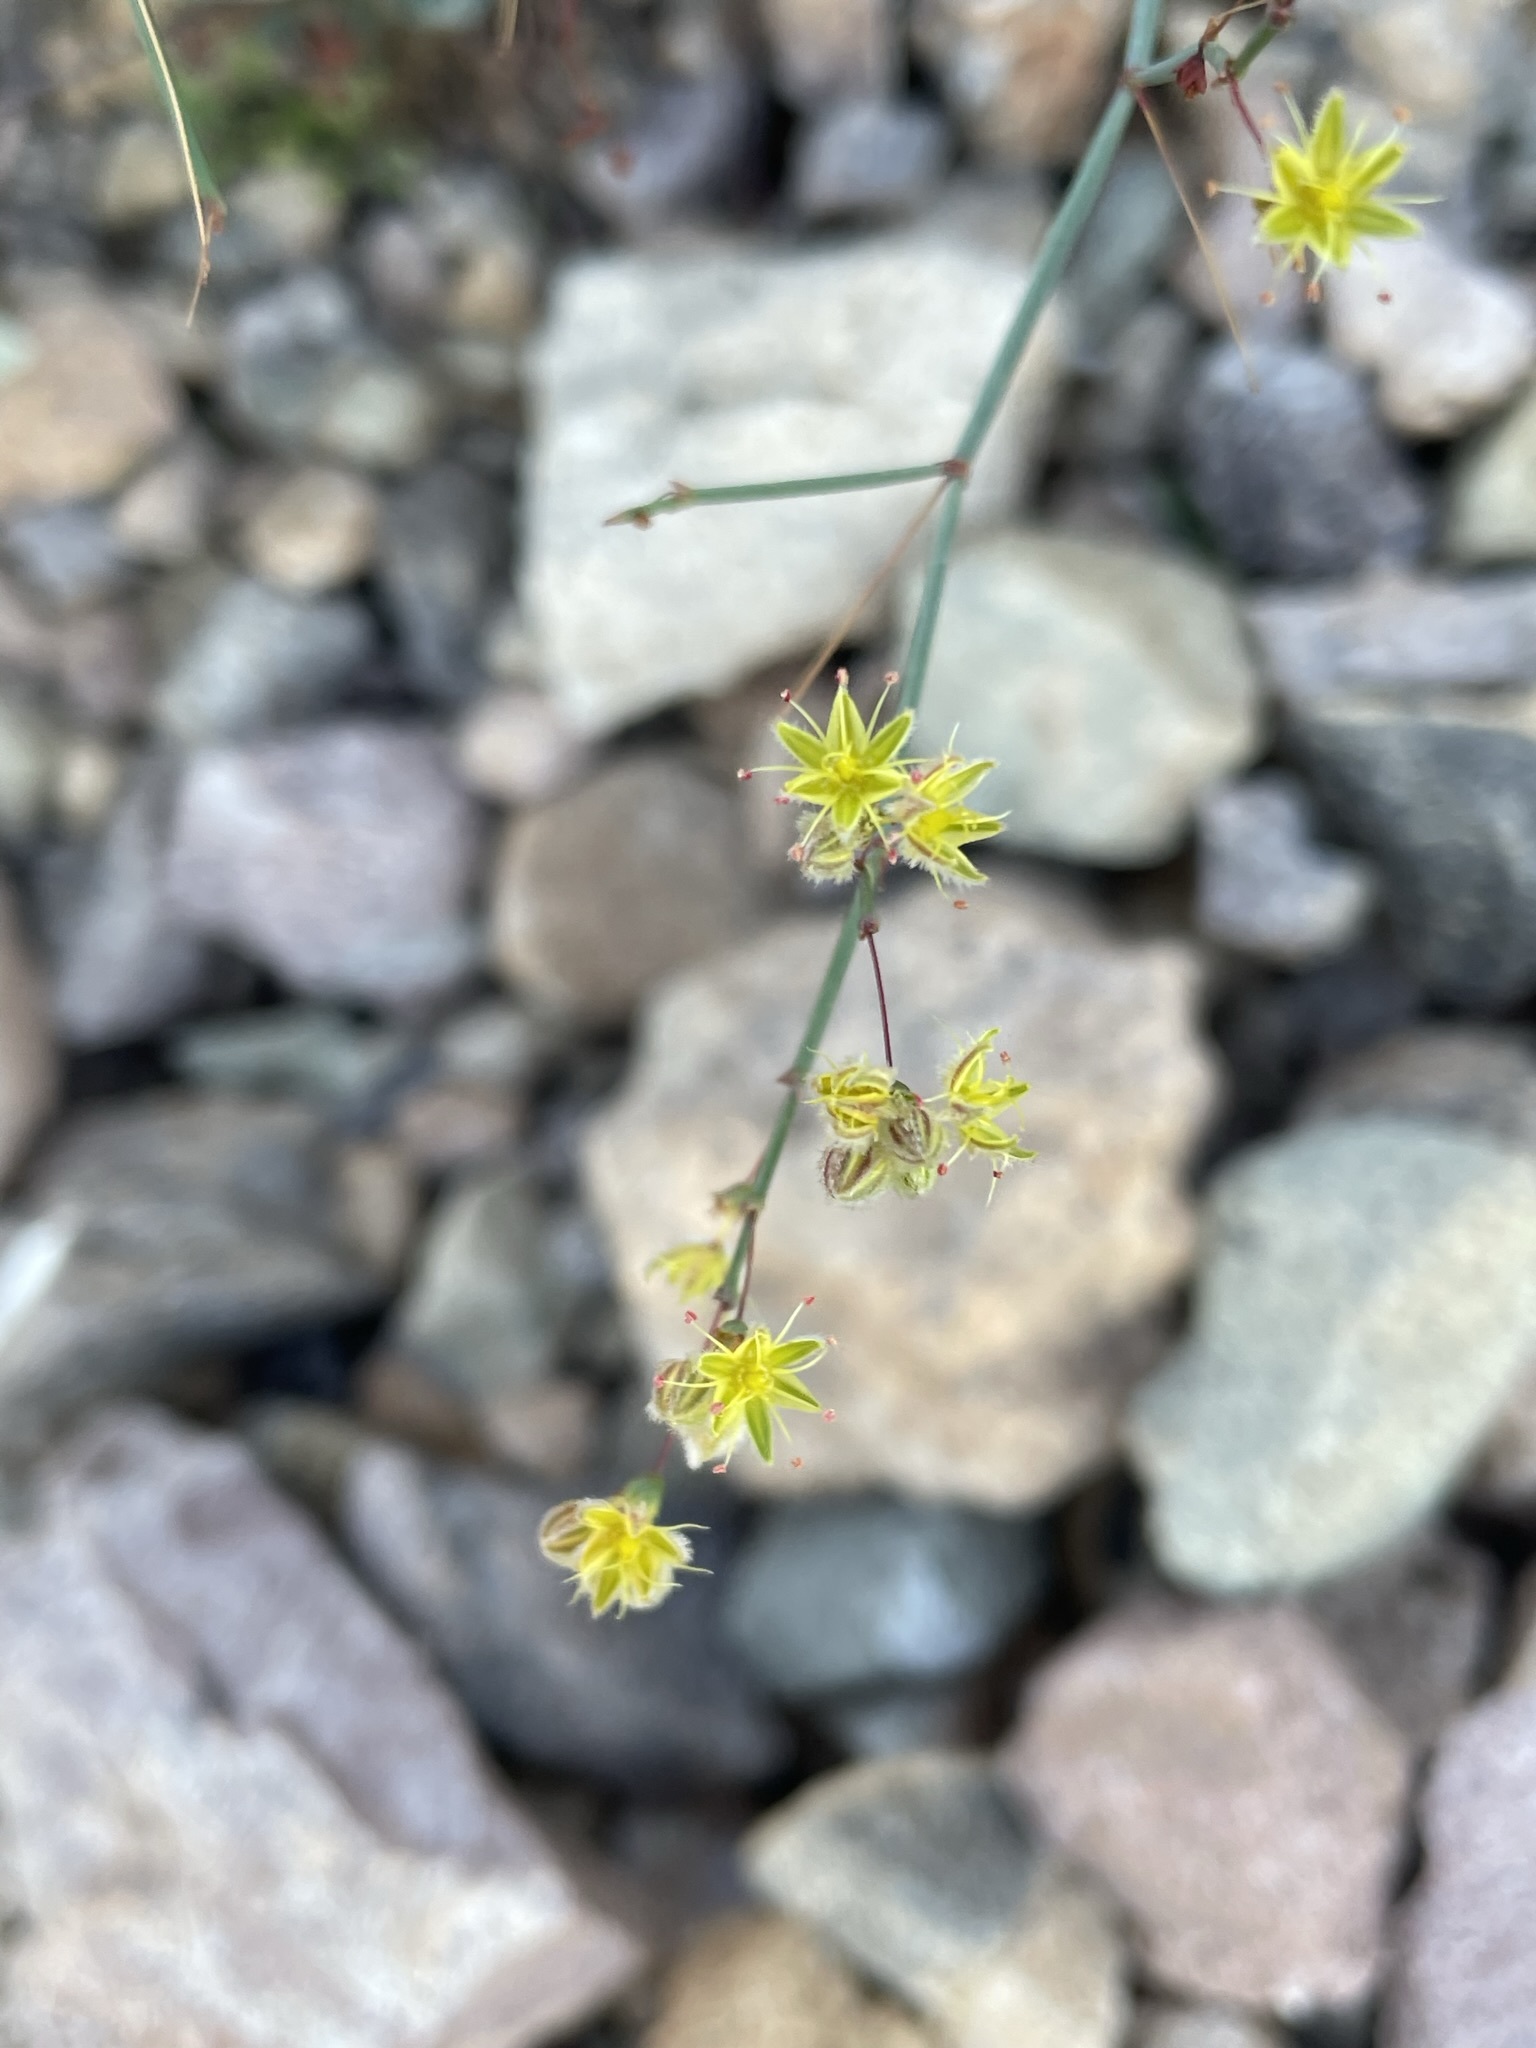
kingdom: Plantae
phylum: Tracheophyta
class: Magnoliopsida
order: Caryophyllales
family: Polygonaceae
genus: Eriogonum
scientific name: Eriogonum inflatum
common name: Desert trumpet
